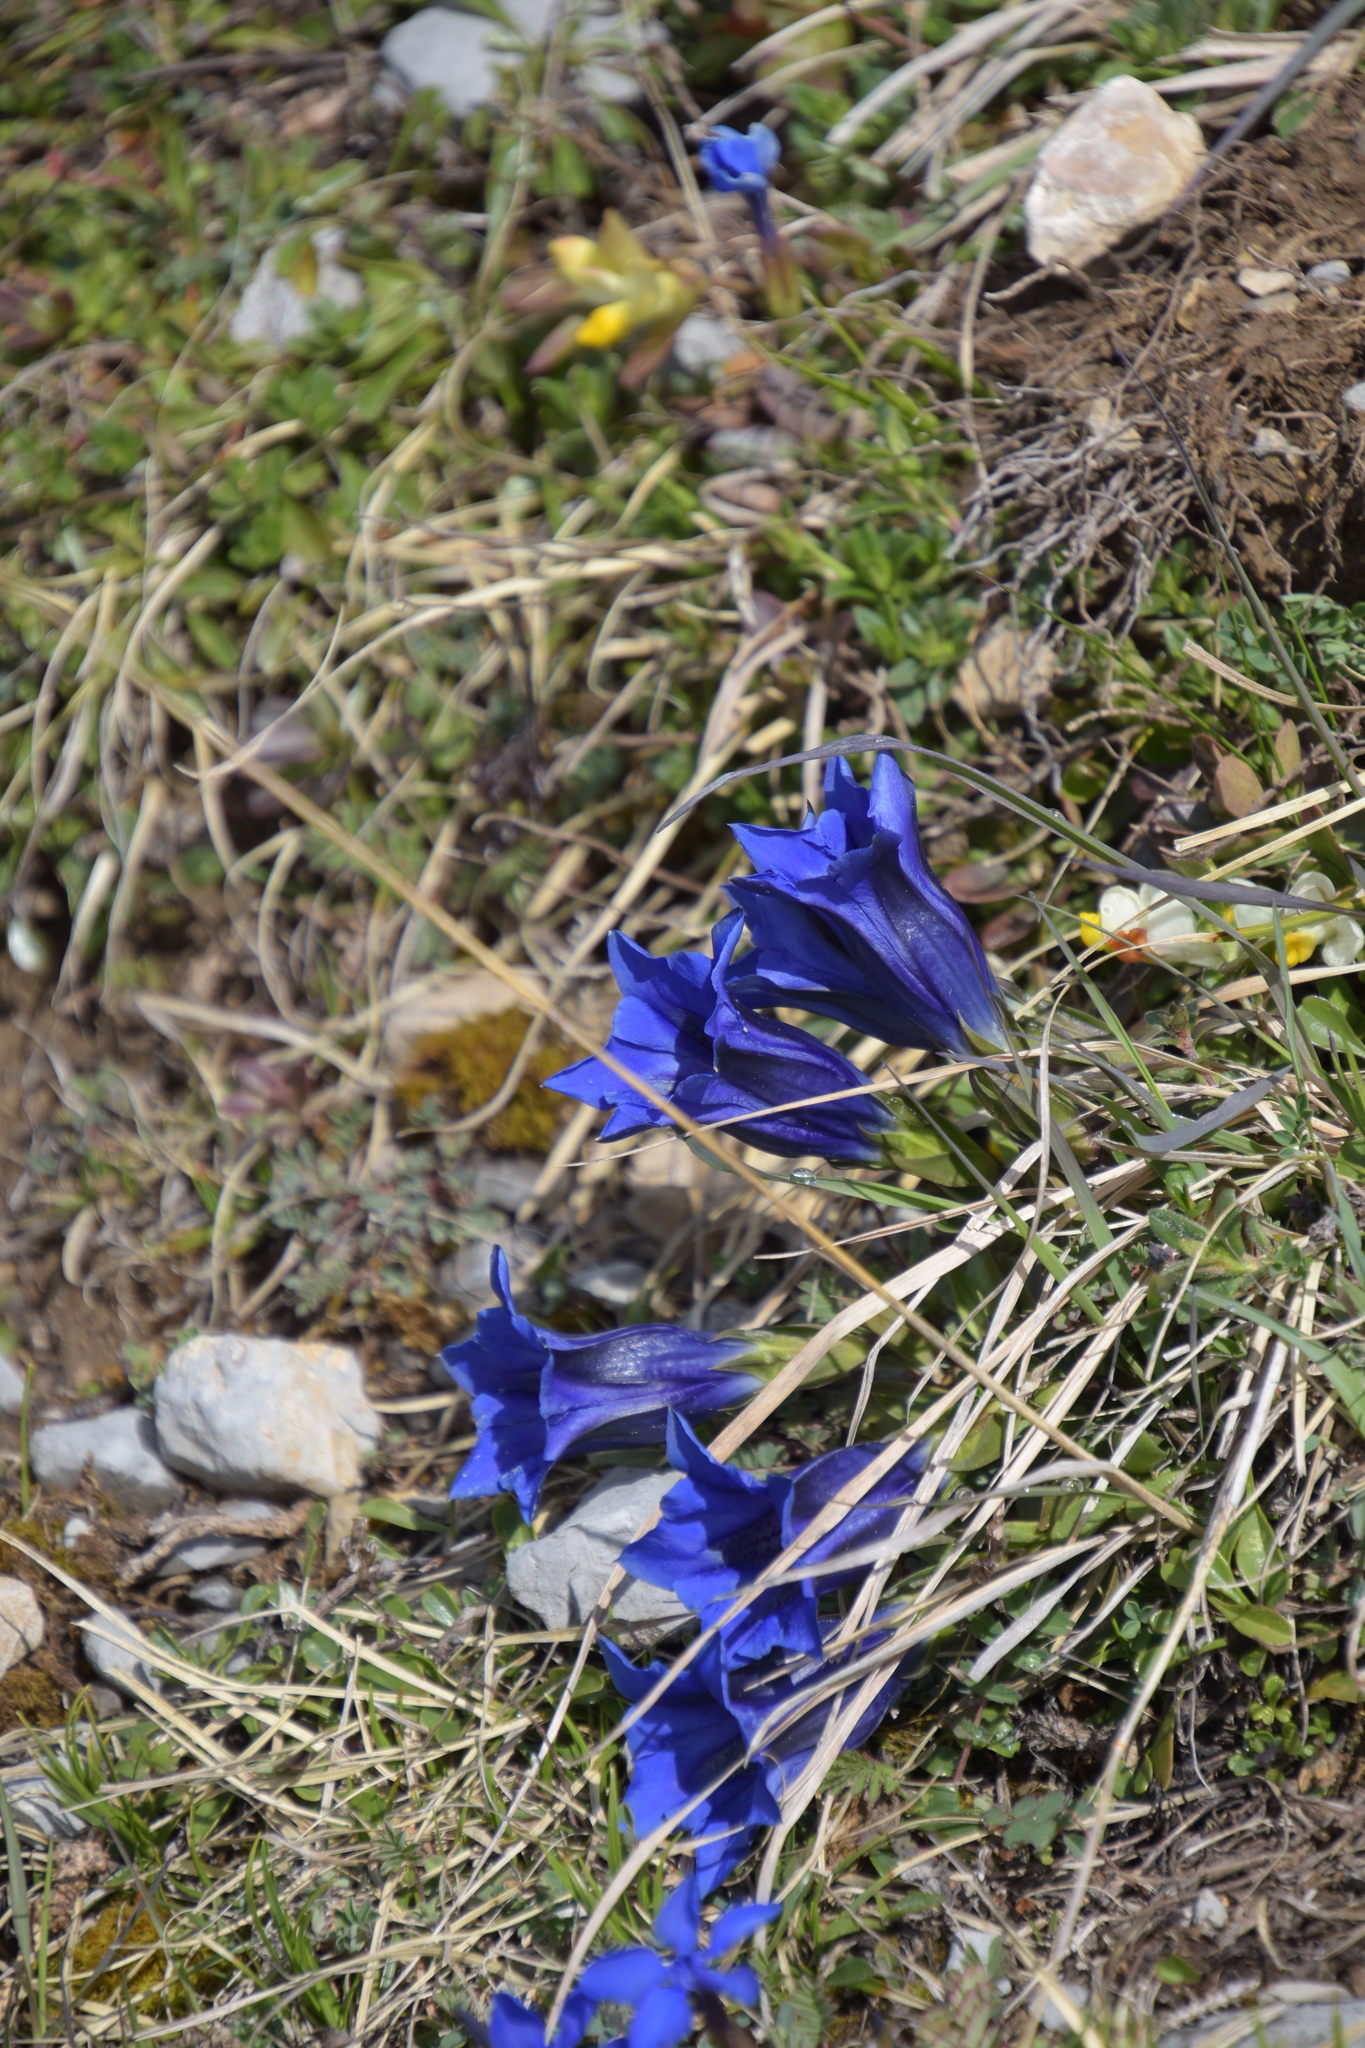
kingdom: Plantae
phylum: Tracheophyta
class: Magnoliopsida
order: Gentianales
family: Gentianaceae
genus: Gentiana
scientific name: Gentiana clusii
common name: Trumpet gentian
